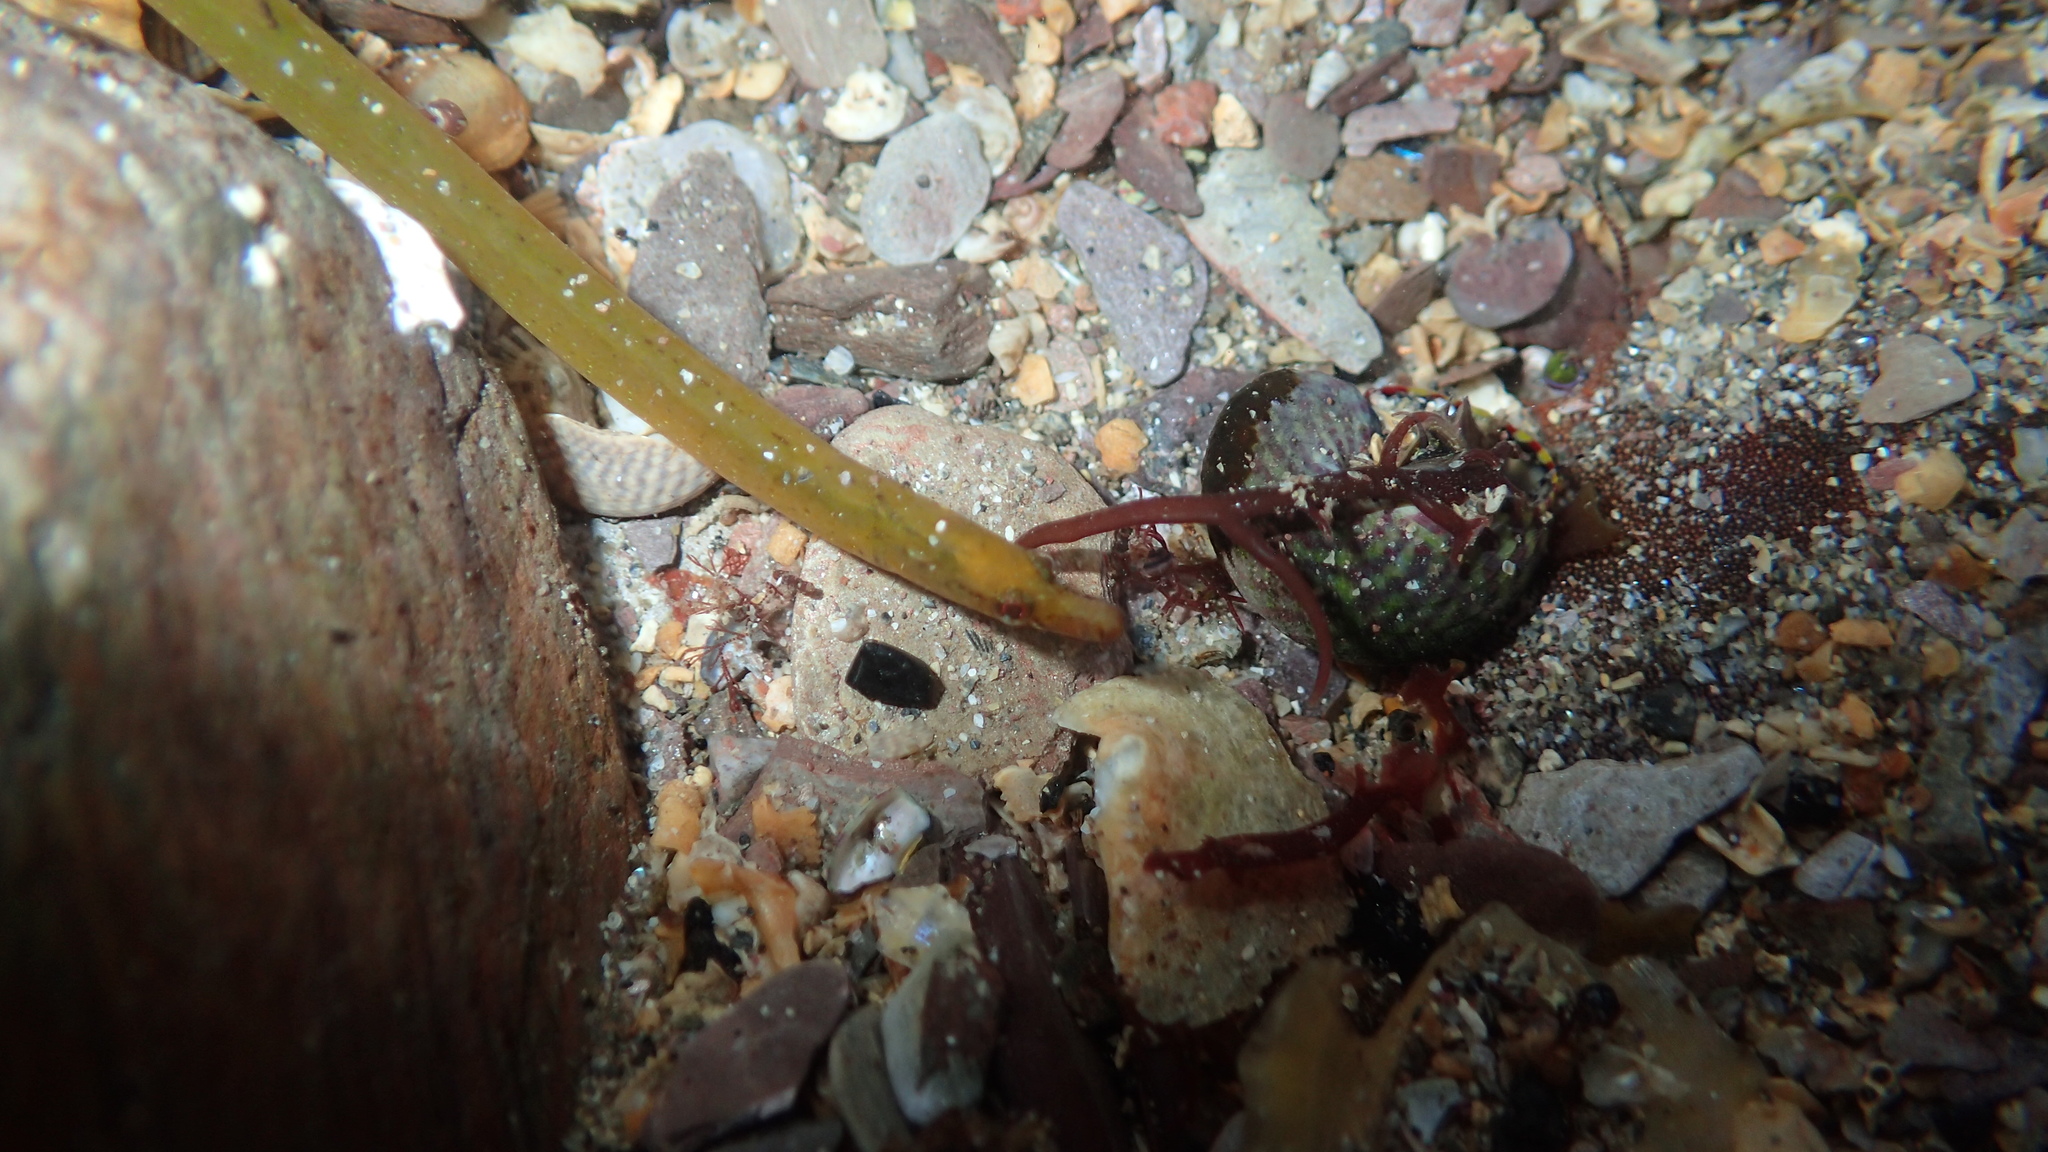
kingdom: Animalia
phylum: Chordata
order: Syngnathiformes
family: Syngnathidae
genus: Nerophis
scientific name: Nerophis lumbriciformis
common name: Worm pipefish
